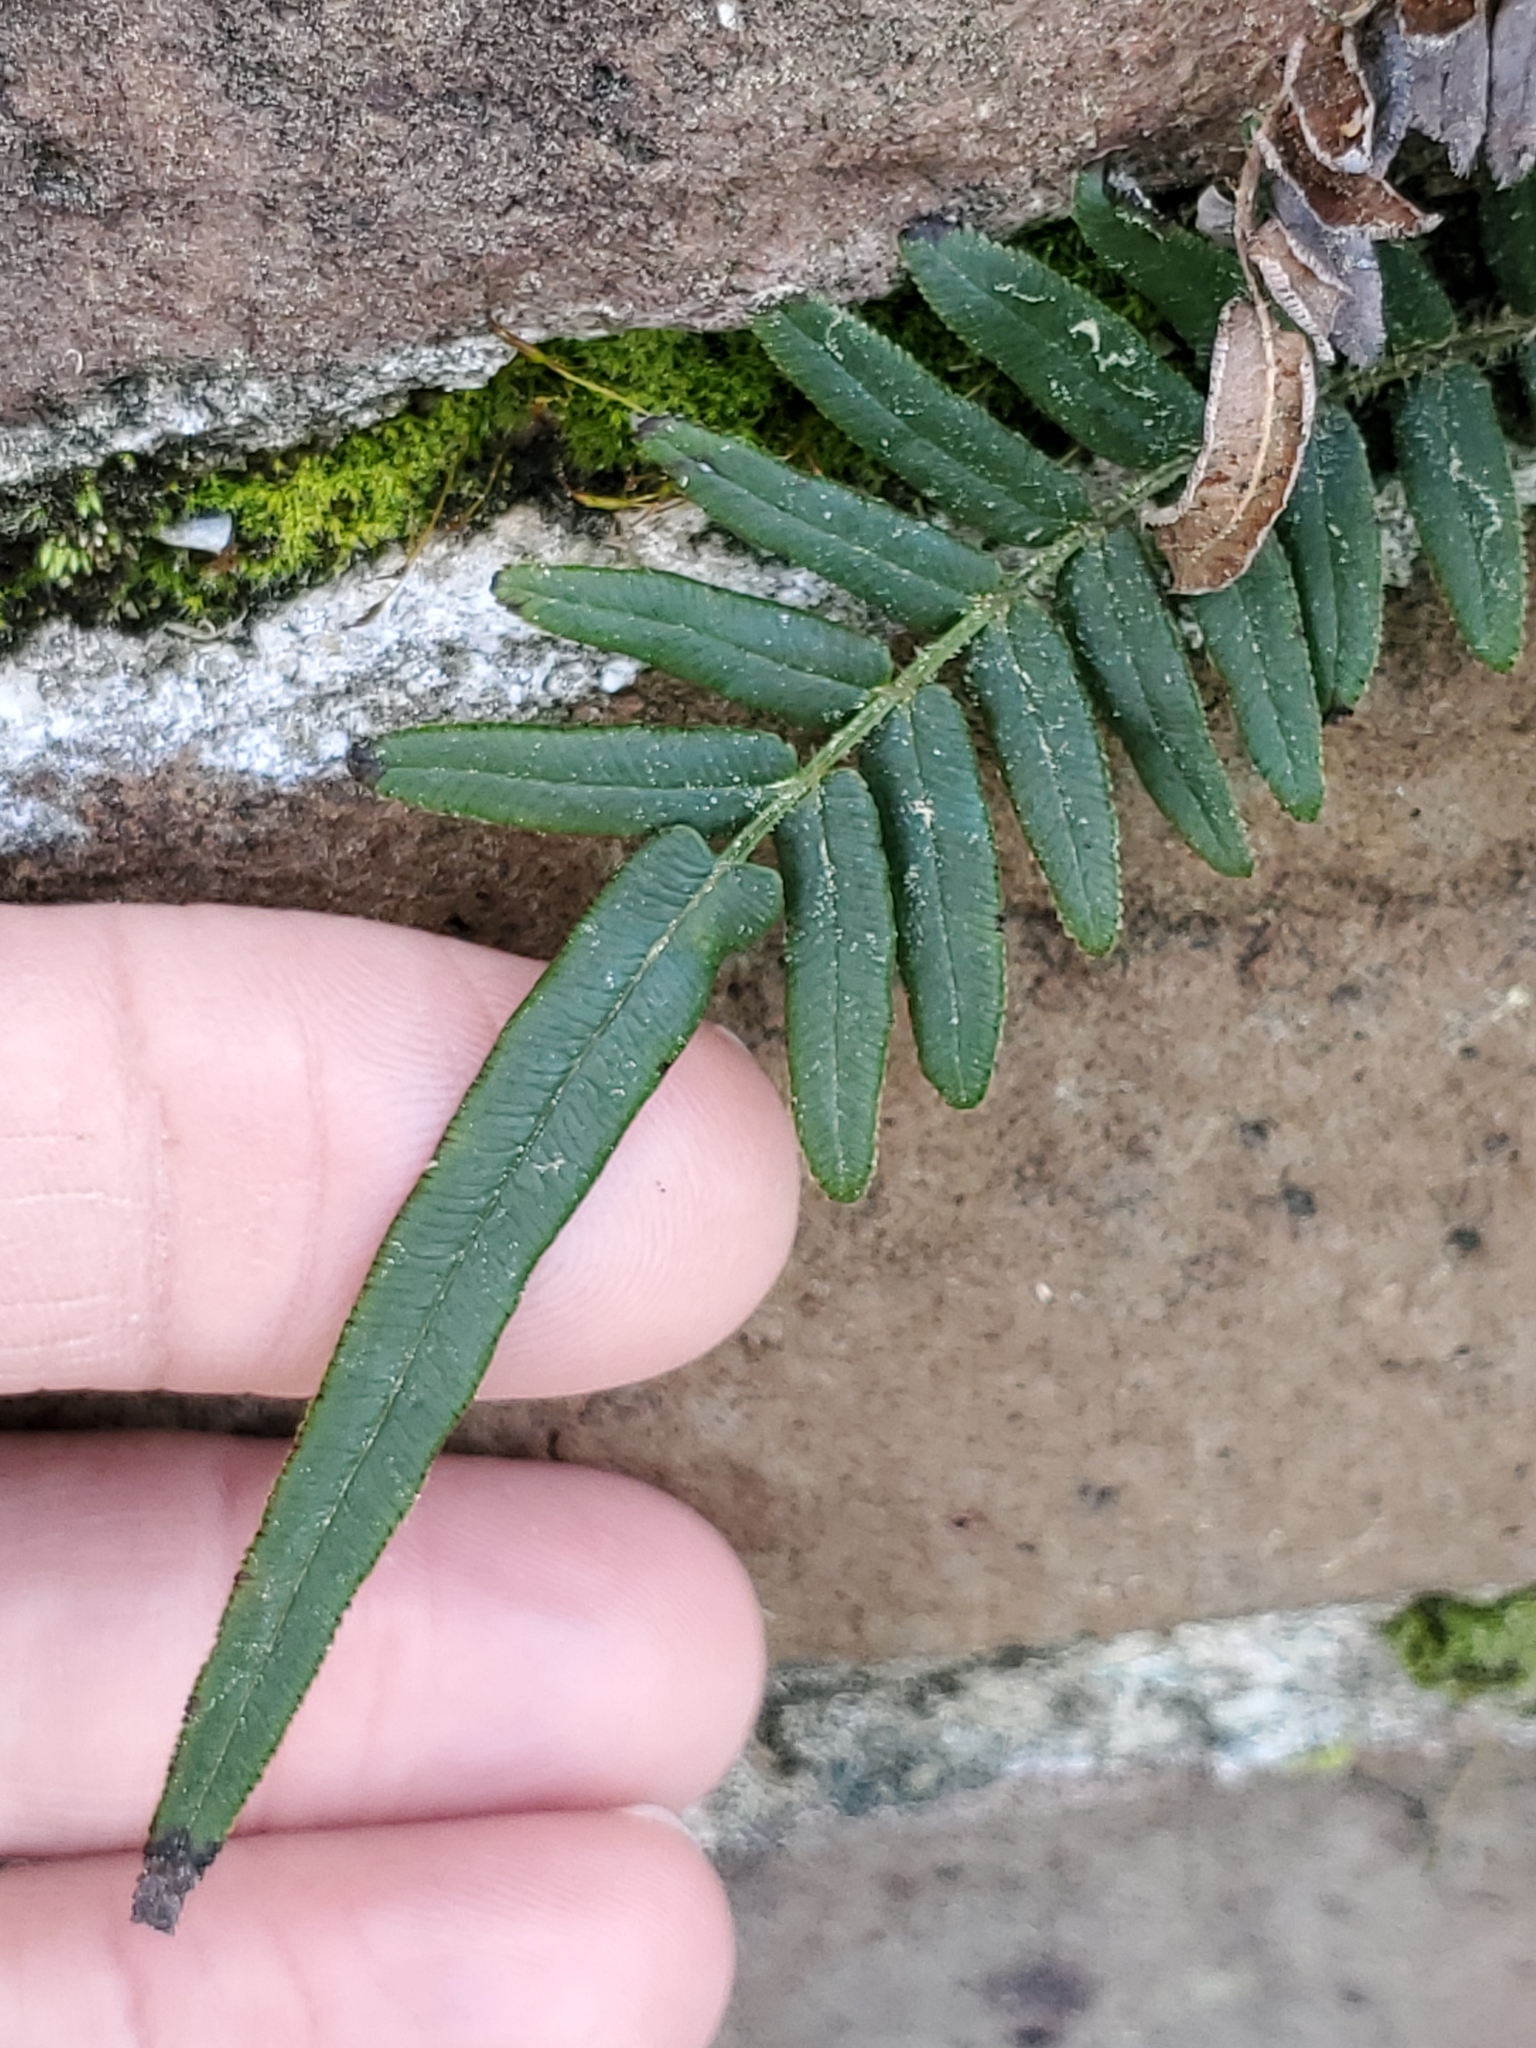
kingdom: Plantae
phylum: Tracheophyta
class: Polypodiopsida
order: Polypodiales
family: Pteridaceae
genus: Pteris
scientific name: Pteris vittata
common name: Ladder brake
